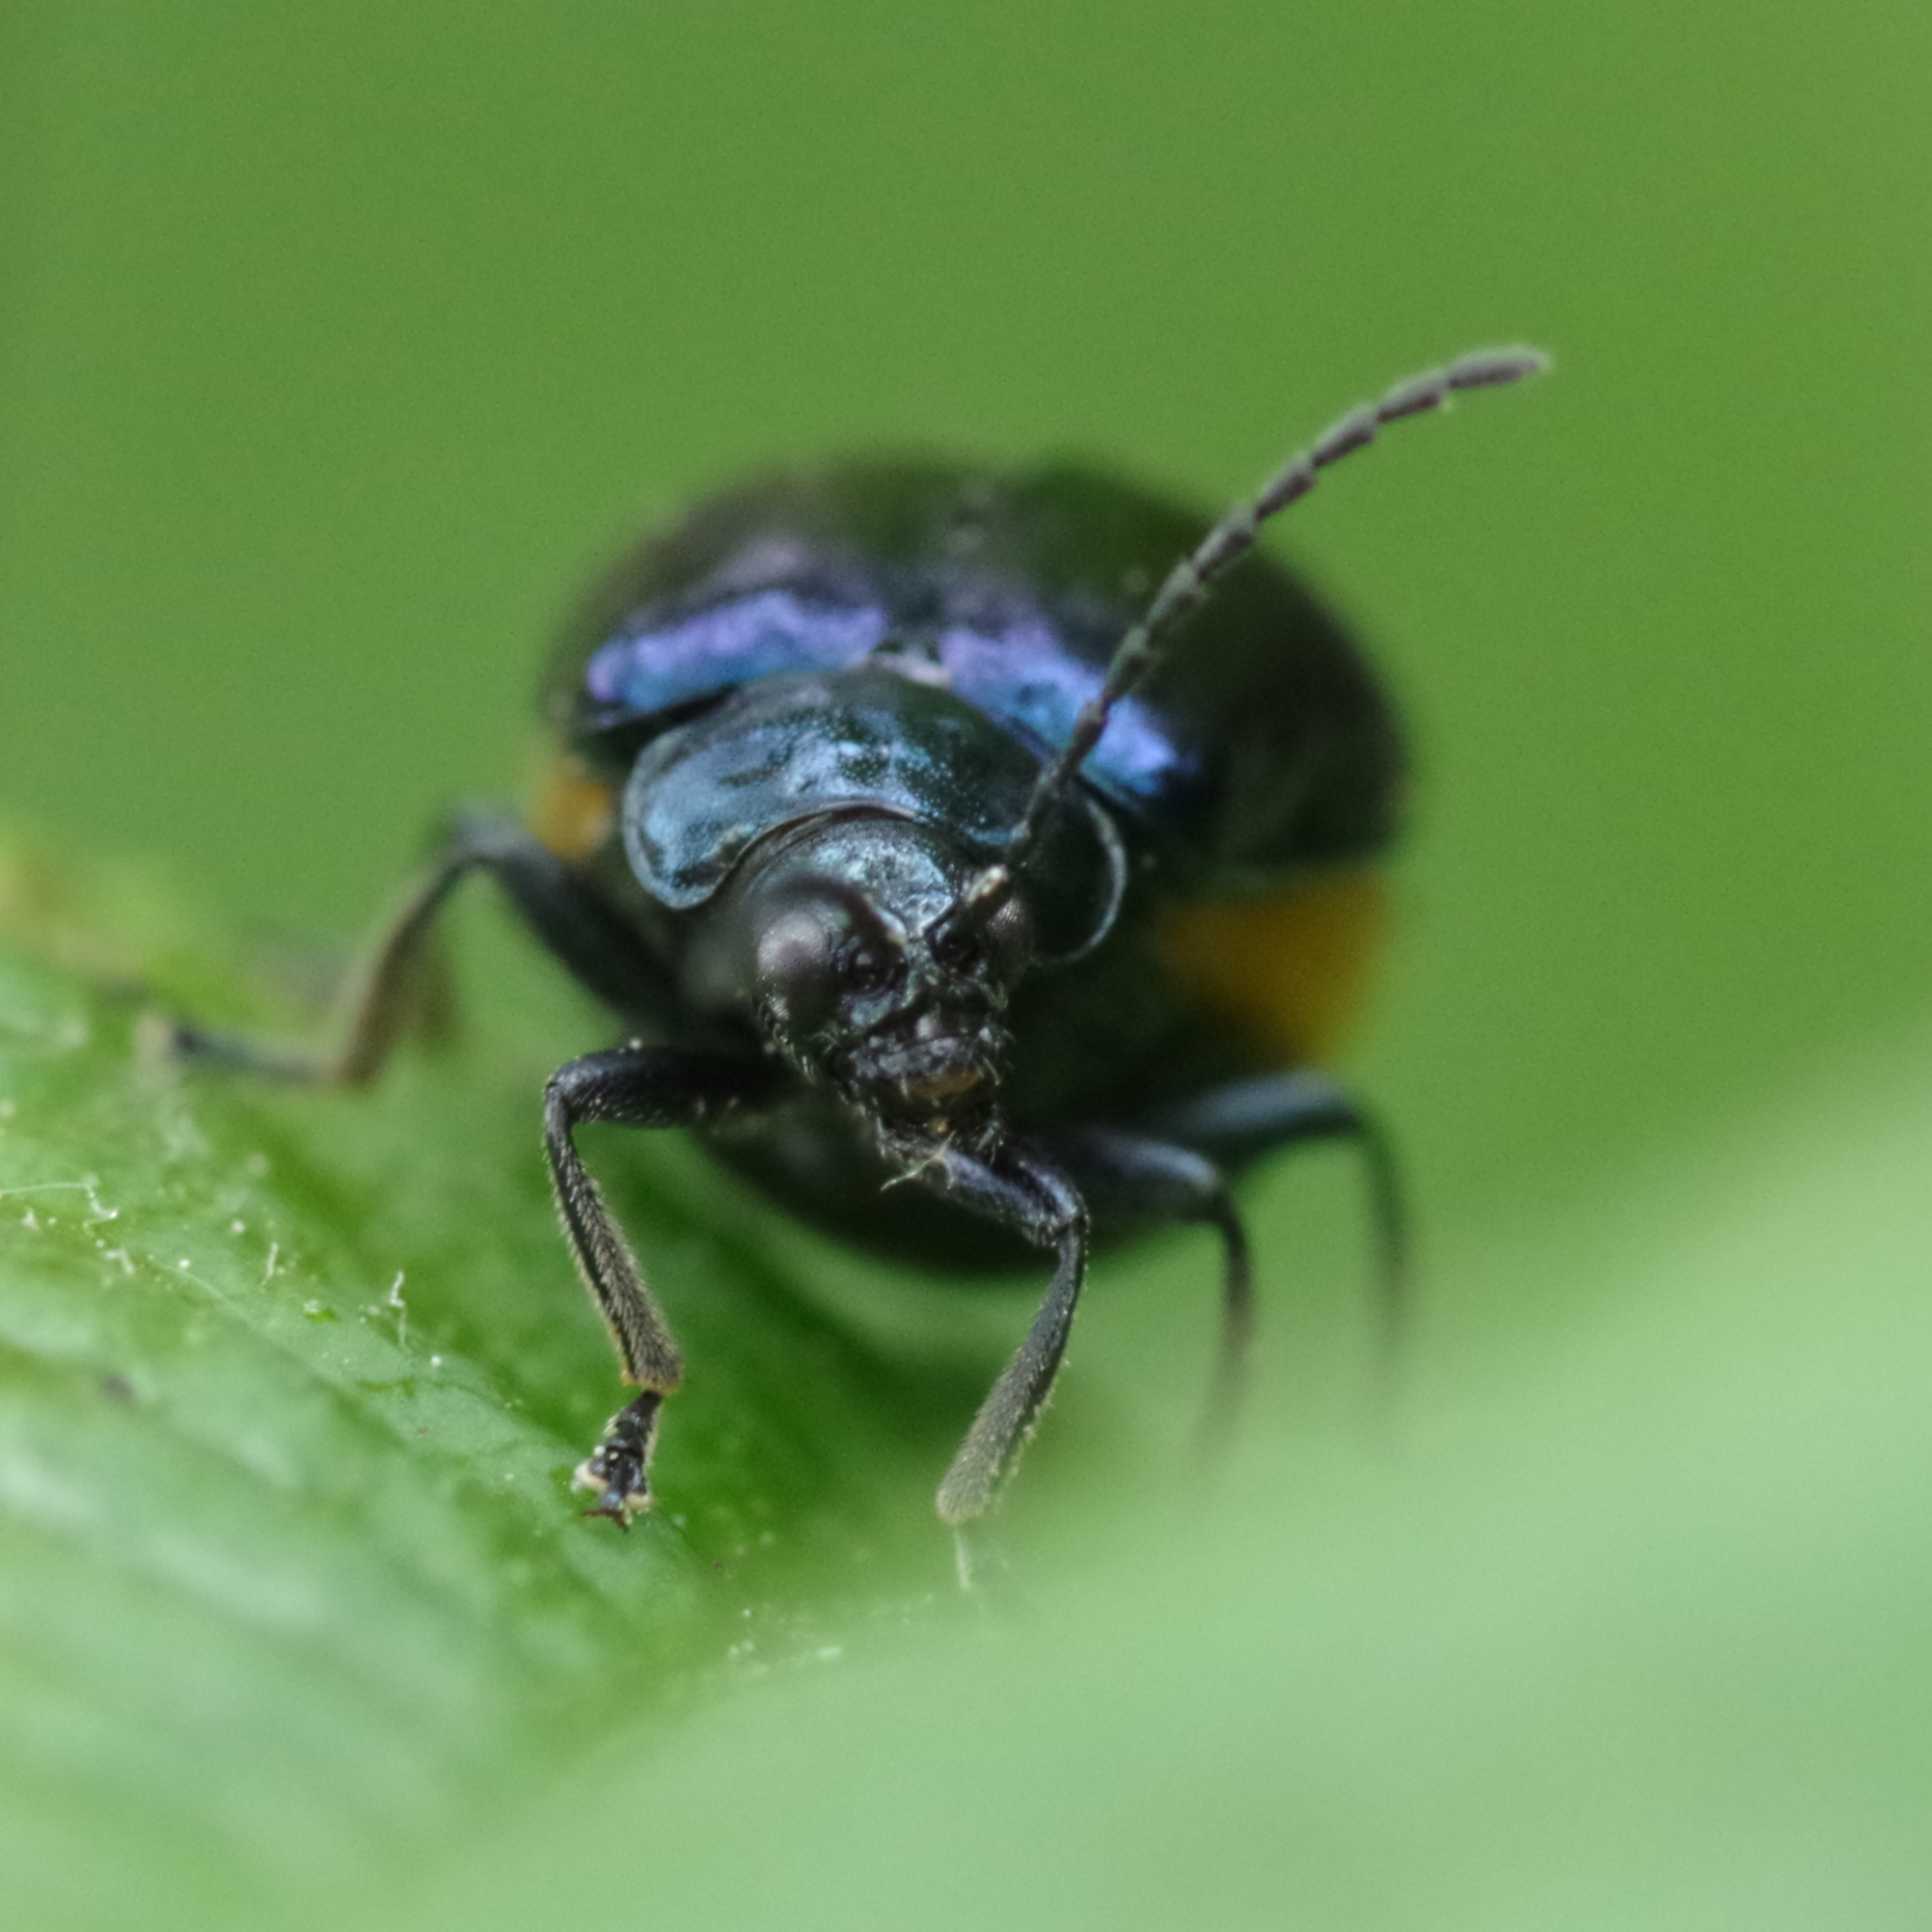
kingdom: Animalia
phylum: Arthropoda
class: Insecta
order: Coleoptera
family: Chrysomelidae
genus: Agelastica
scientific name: Agelastica alni
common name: Alder leaf beetle
